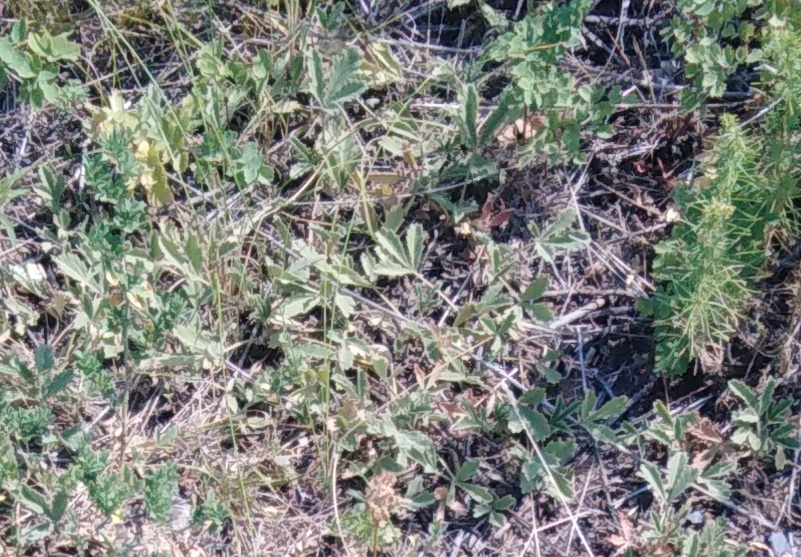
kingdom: Plantae
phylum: Tracheophyta
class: Magnoliopsida
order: Rosales
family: Rosaceae
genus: Potentilla
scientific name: Potentilla incana
